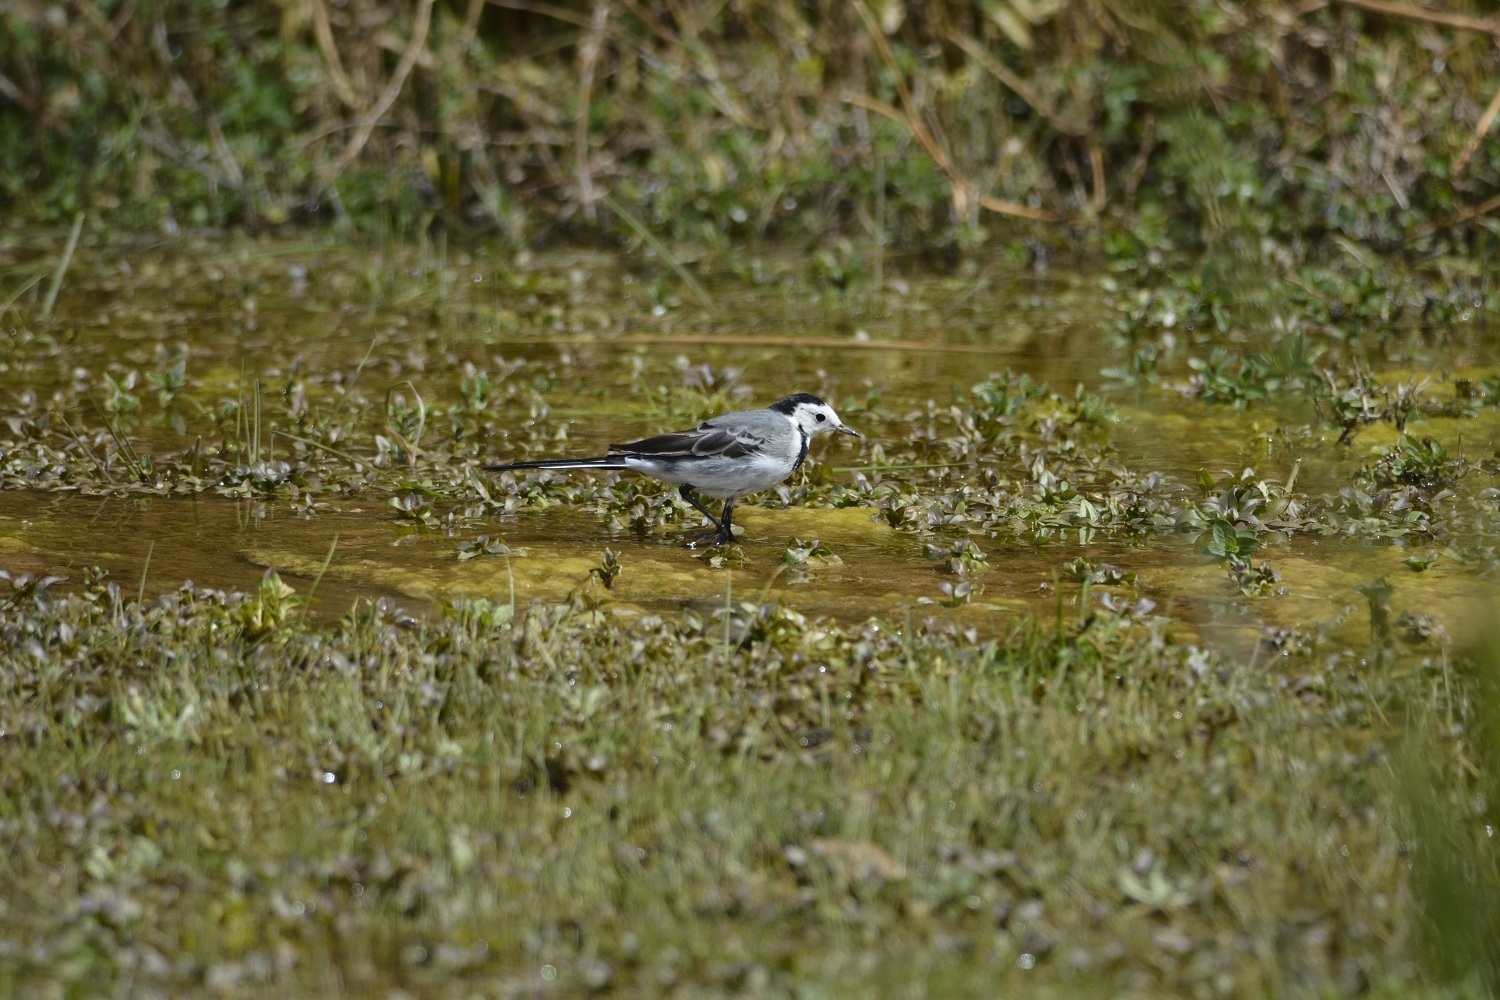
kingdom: Animalia
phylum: Chordata
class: Aves
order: Passeriformes
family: Motacillidae
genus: Motacilla
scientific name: Motacilla alba
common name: White wagtail
